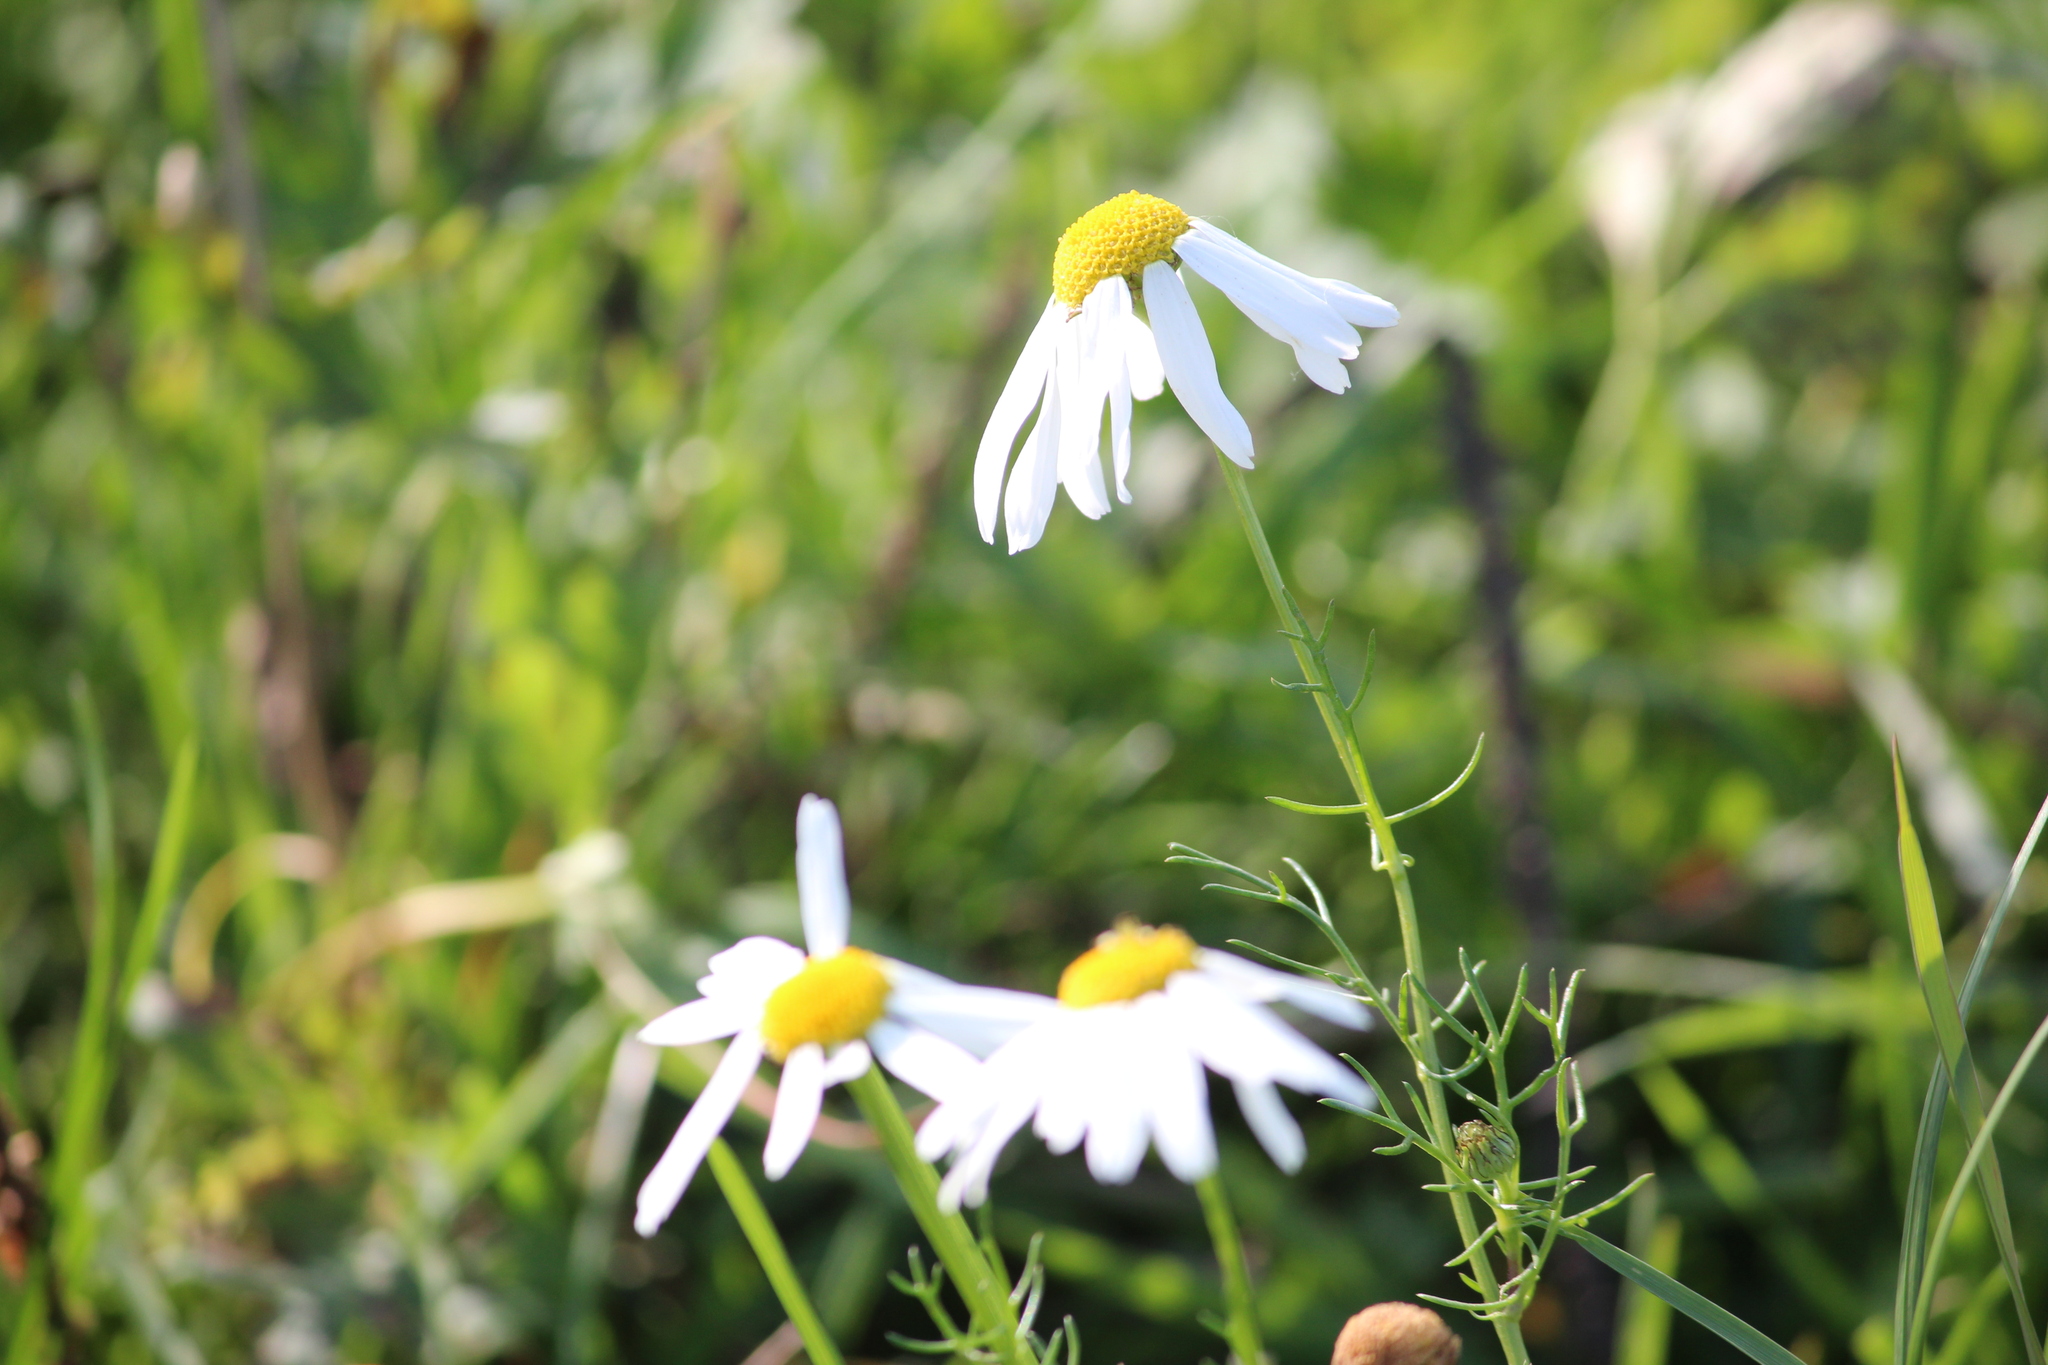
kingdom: Plantae
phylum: Tracheophyta
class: Magnoliopsida
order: Asterales
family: Asteraceae
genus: Tripleurospermum
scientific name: Tripleurospermum inodorum
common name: Scentless mayweed
